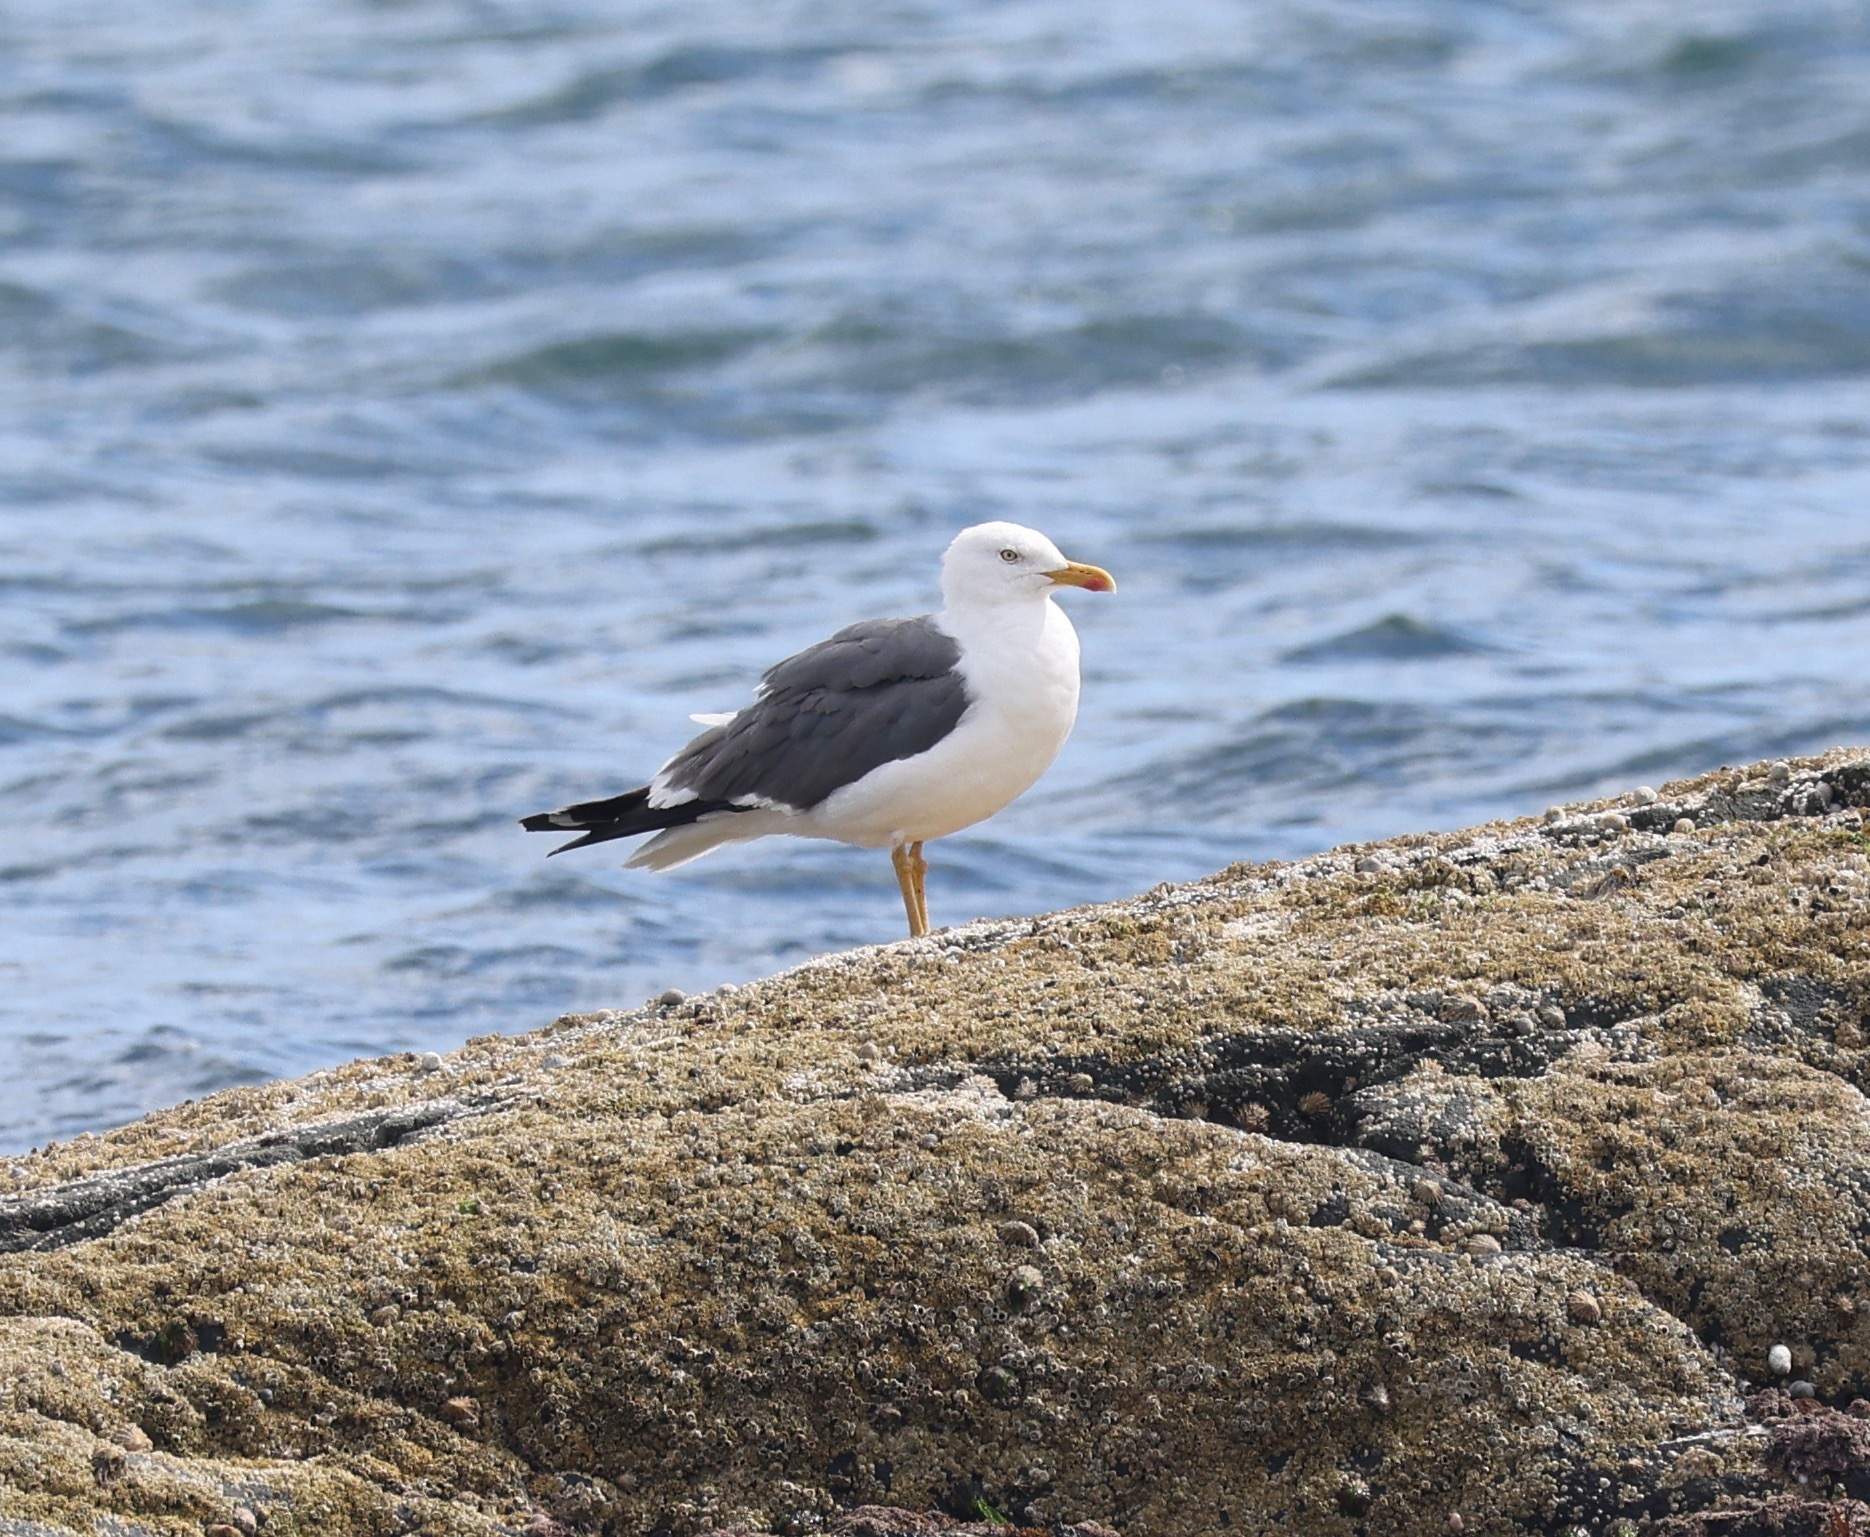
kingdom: Animalia
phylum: Chordata
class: Aves
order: Charadriiformes
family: Laridae
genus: Larus
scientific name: Larus fuscus
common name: Lesser black-backed gull
